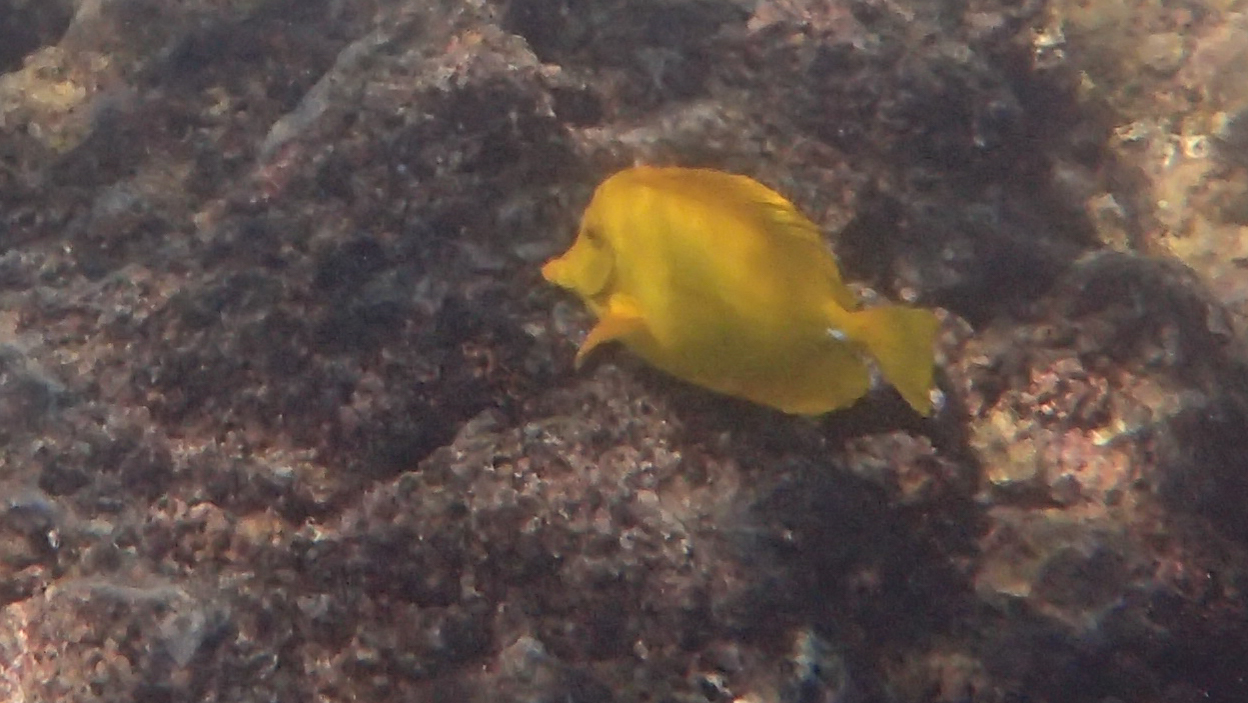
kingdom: Animalia
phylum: Chordata
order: Perciformes
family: Acanthuridae
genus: Zebrasoma
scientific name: Zebrasoma flavescens
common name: Yellow tang
